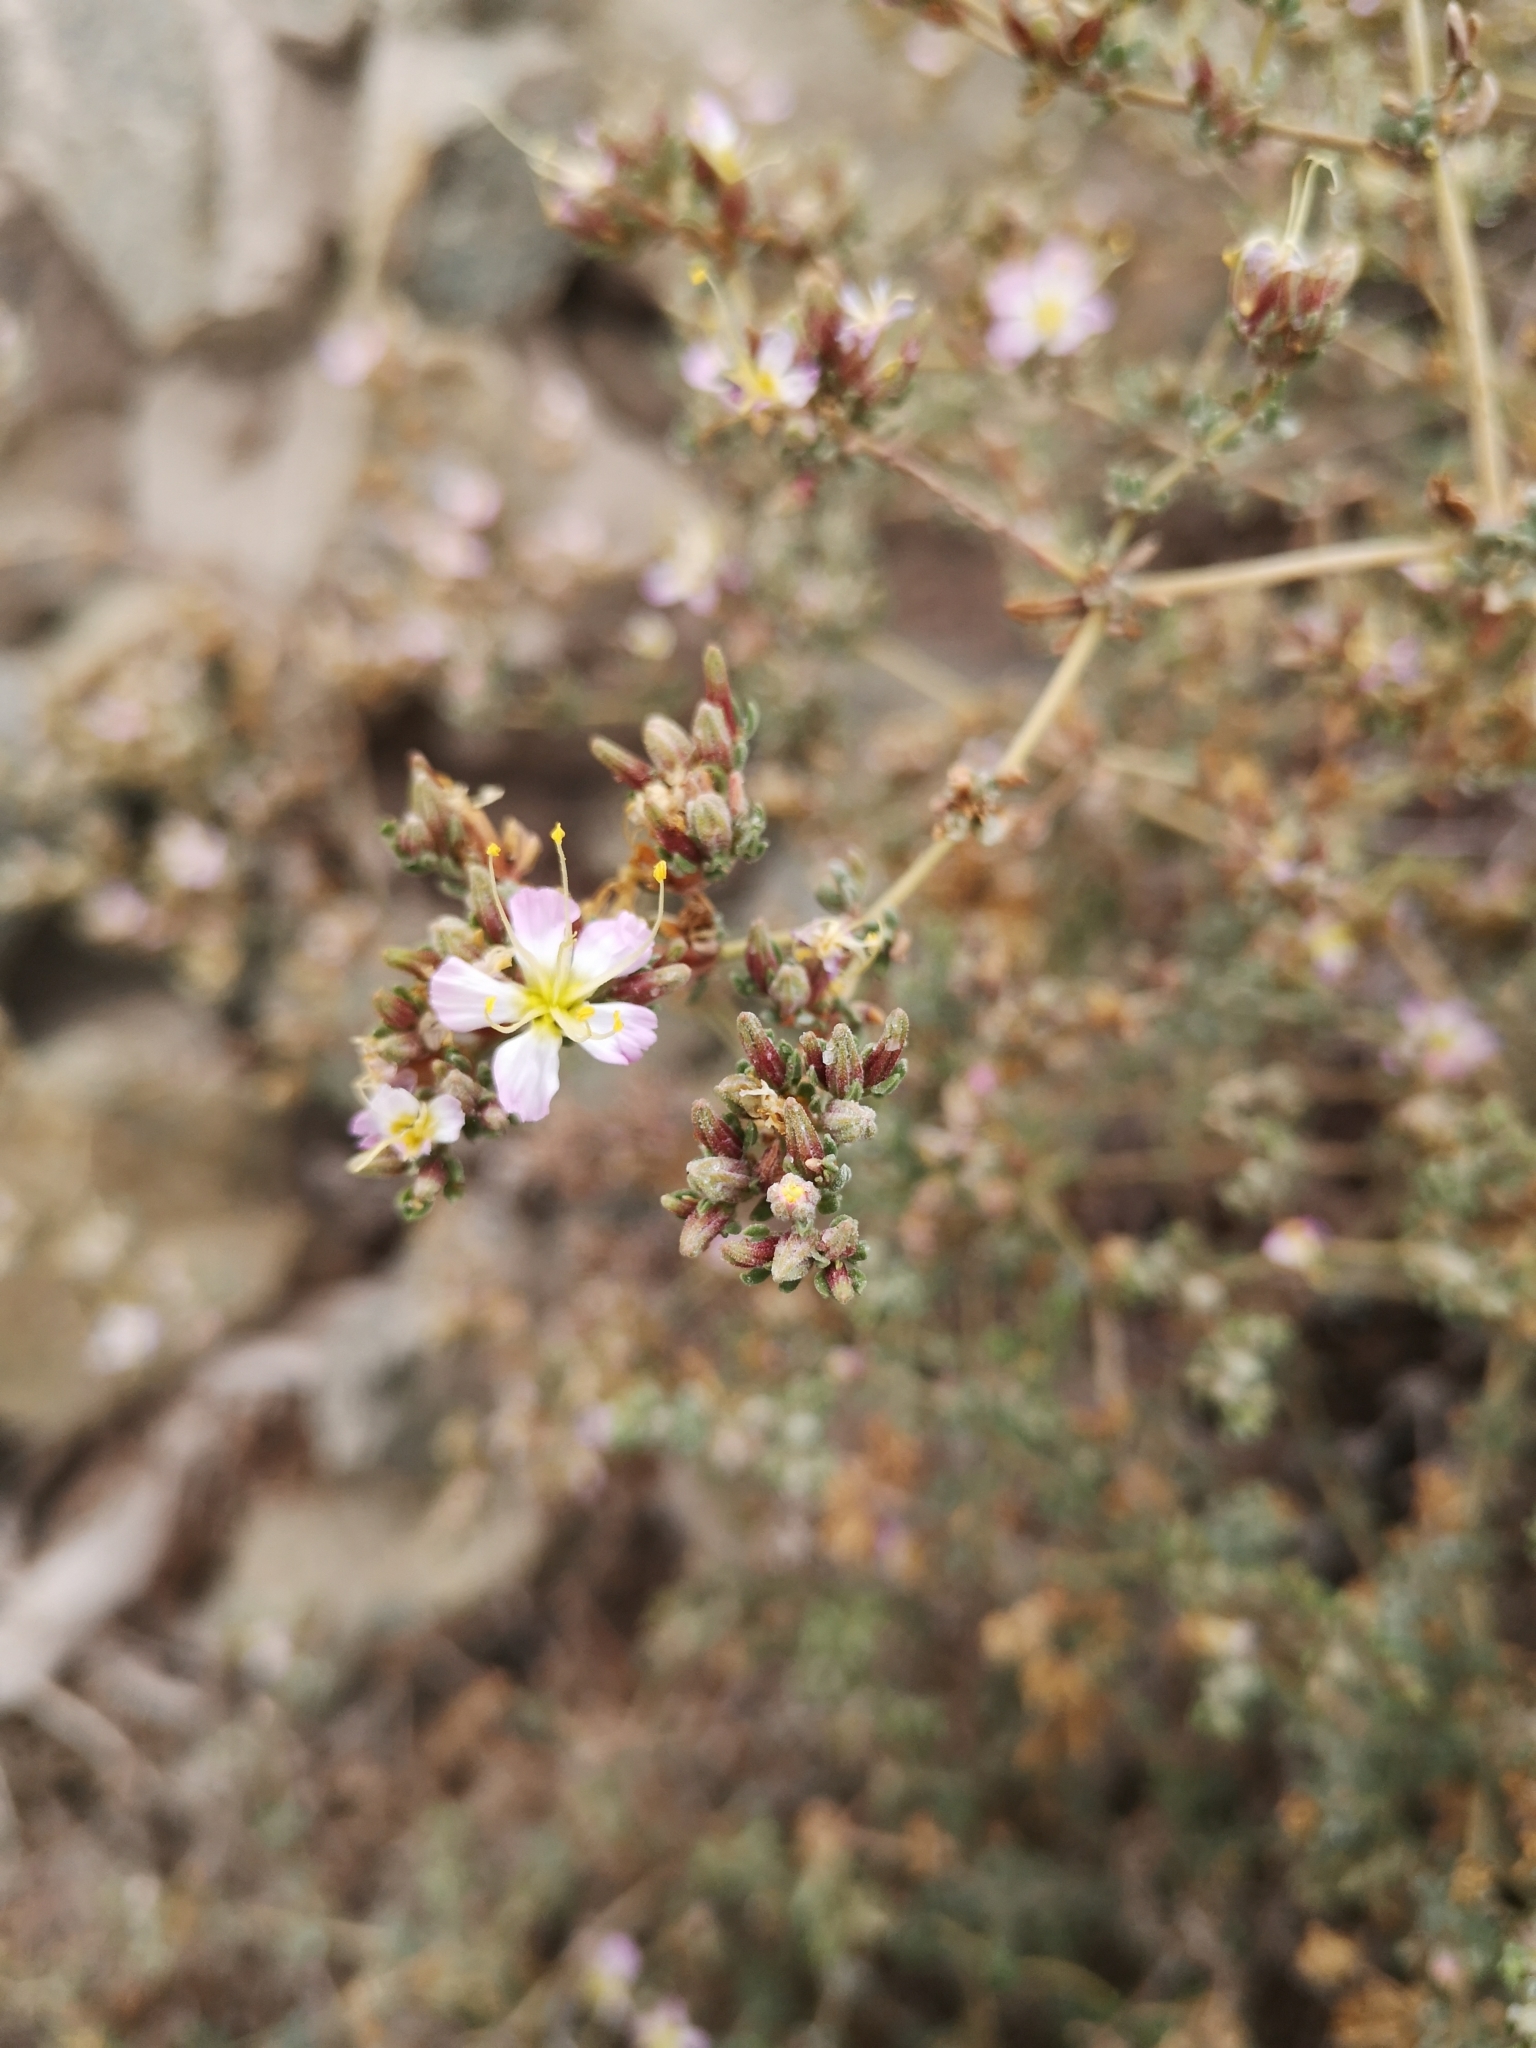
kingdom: Plantae
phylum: Tracheophyta
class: Magnoliopsida
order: Caryophyllales
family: Frankeniaceae
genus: Frankenia
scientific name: Frankenia chilensis
